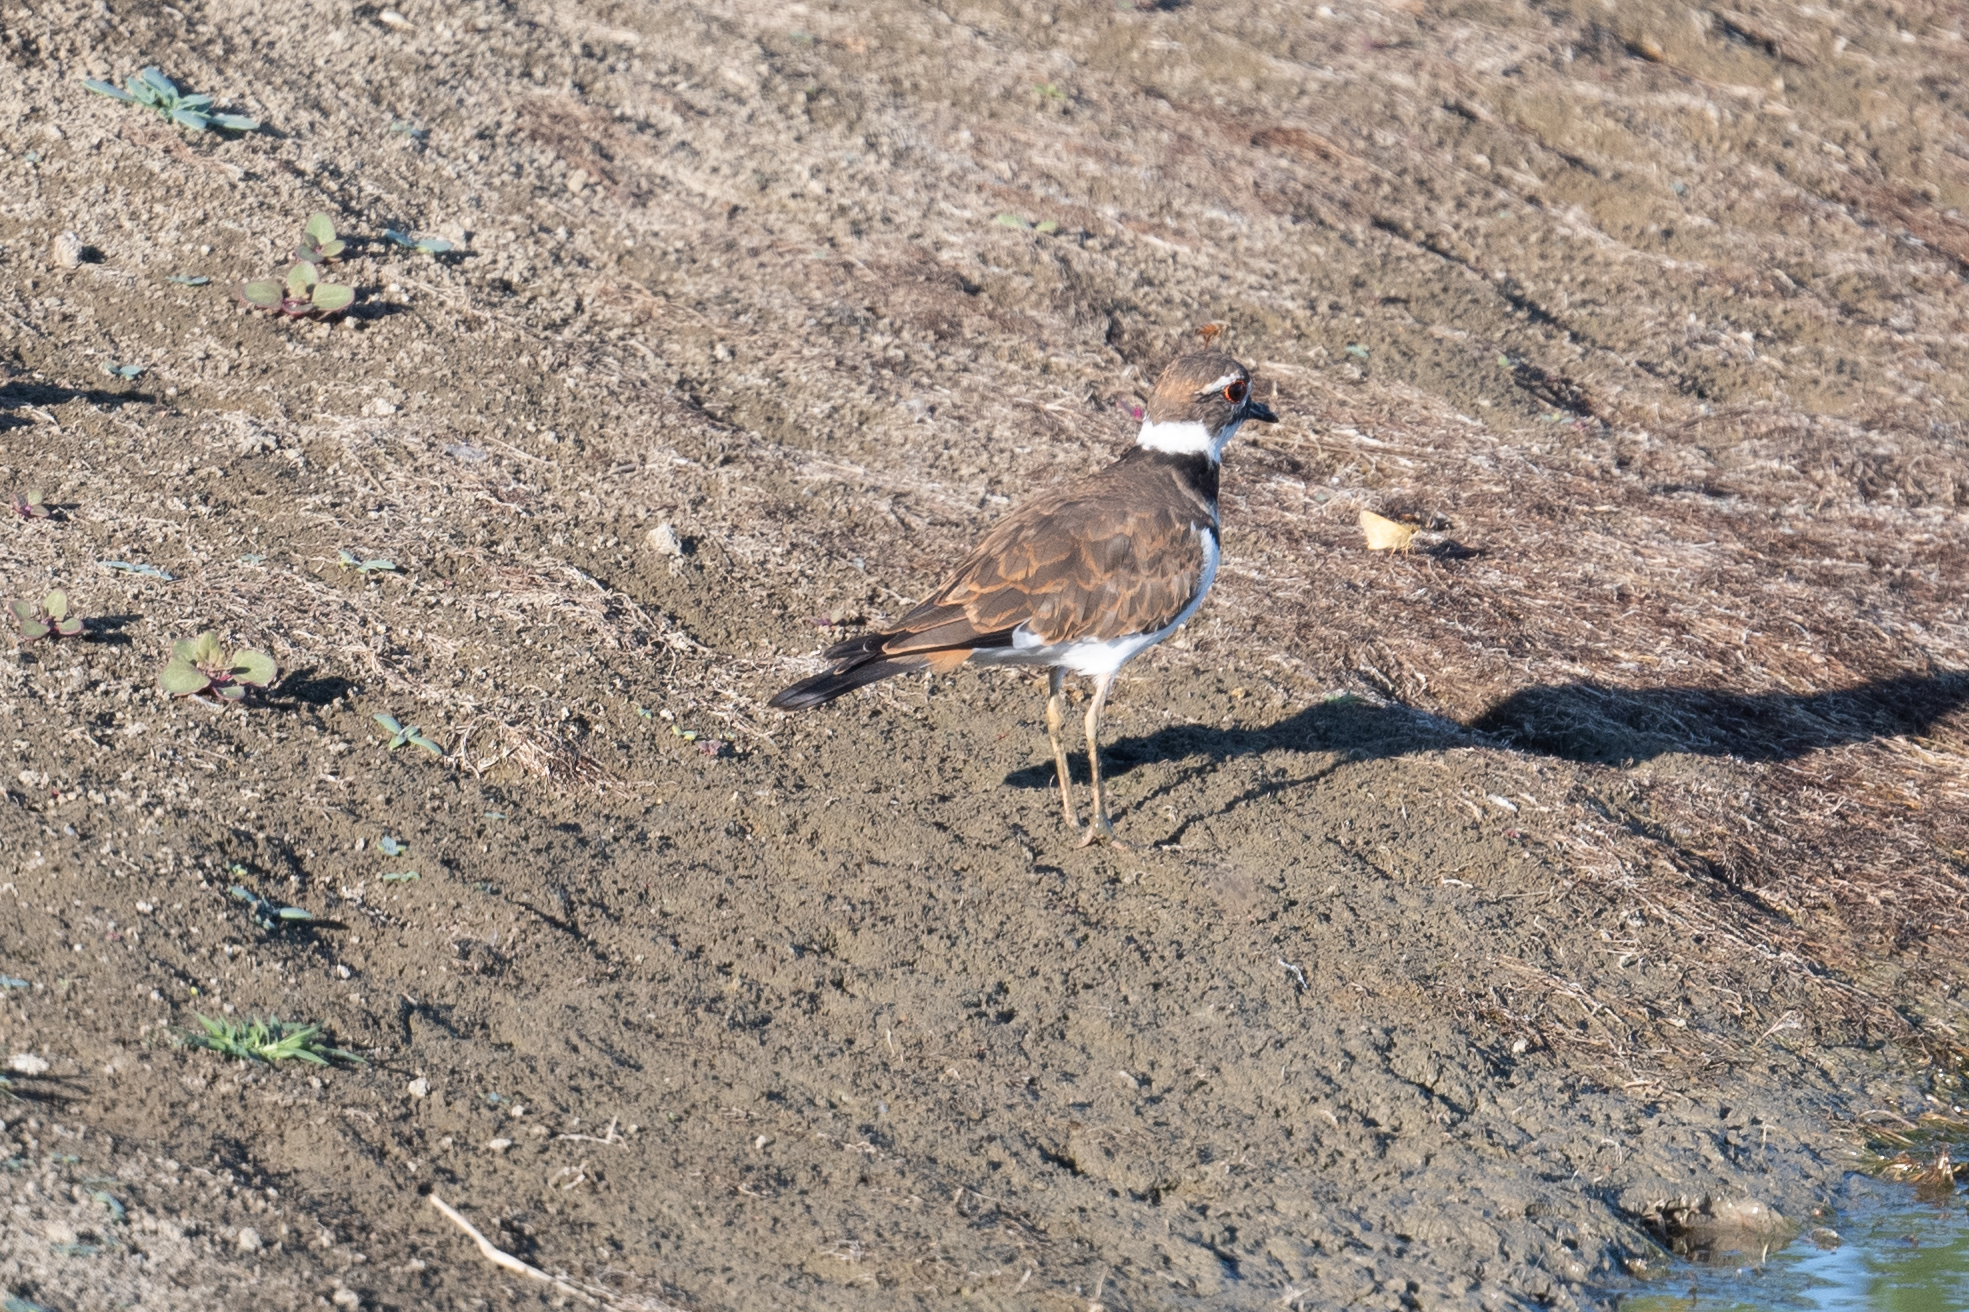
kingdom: Animalia
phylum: Chordata
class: Aves
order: Charadriiformes
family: Charadriidae
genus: Charadrius
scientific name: Charadrius vociferus
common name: Killdeer
